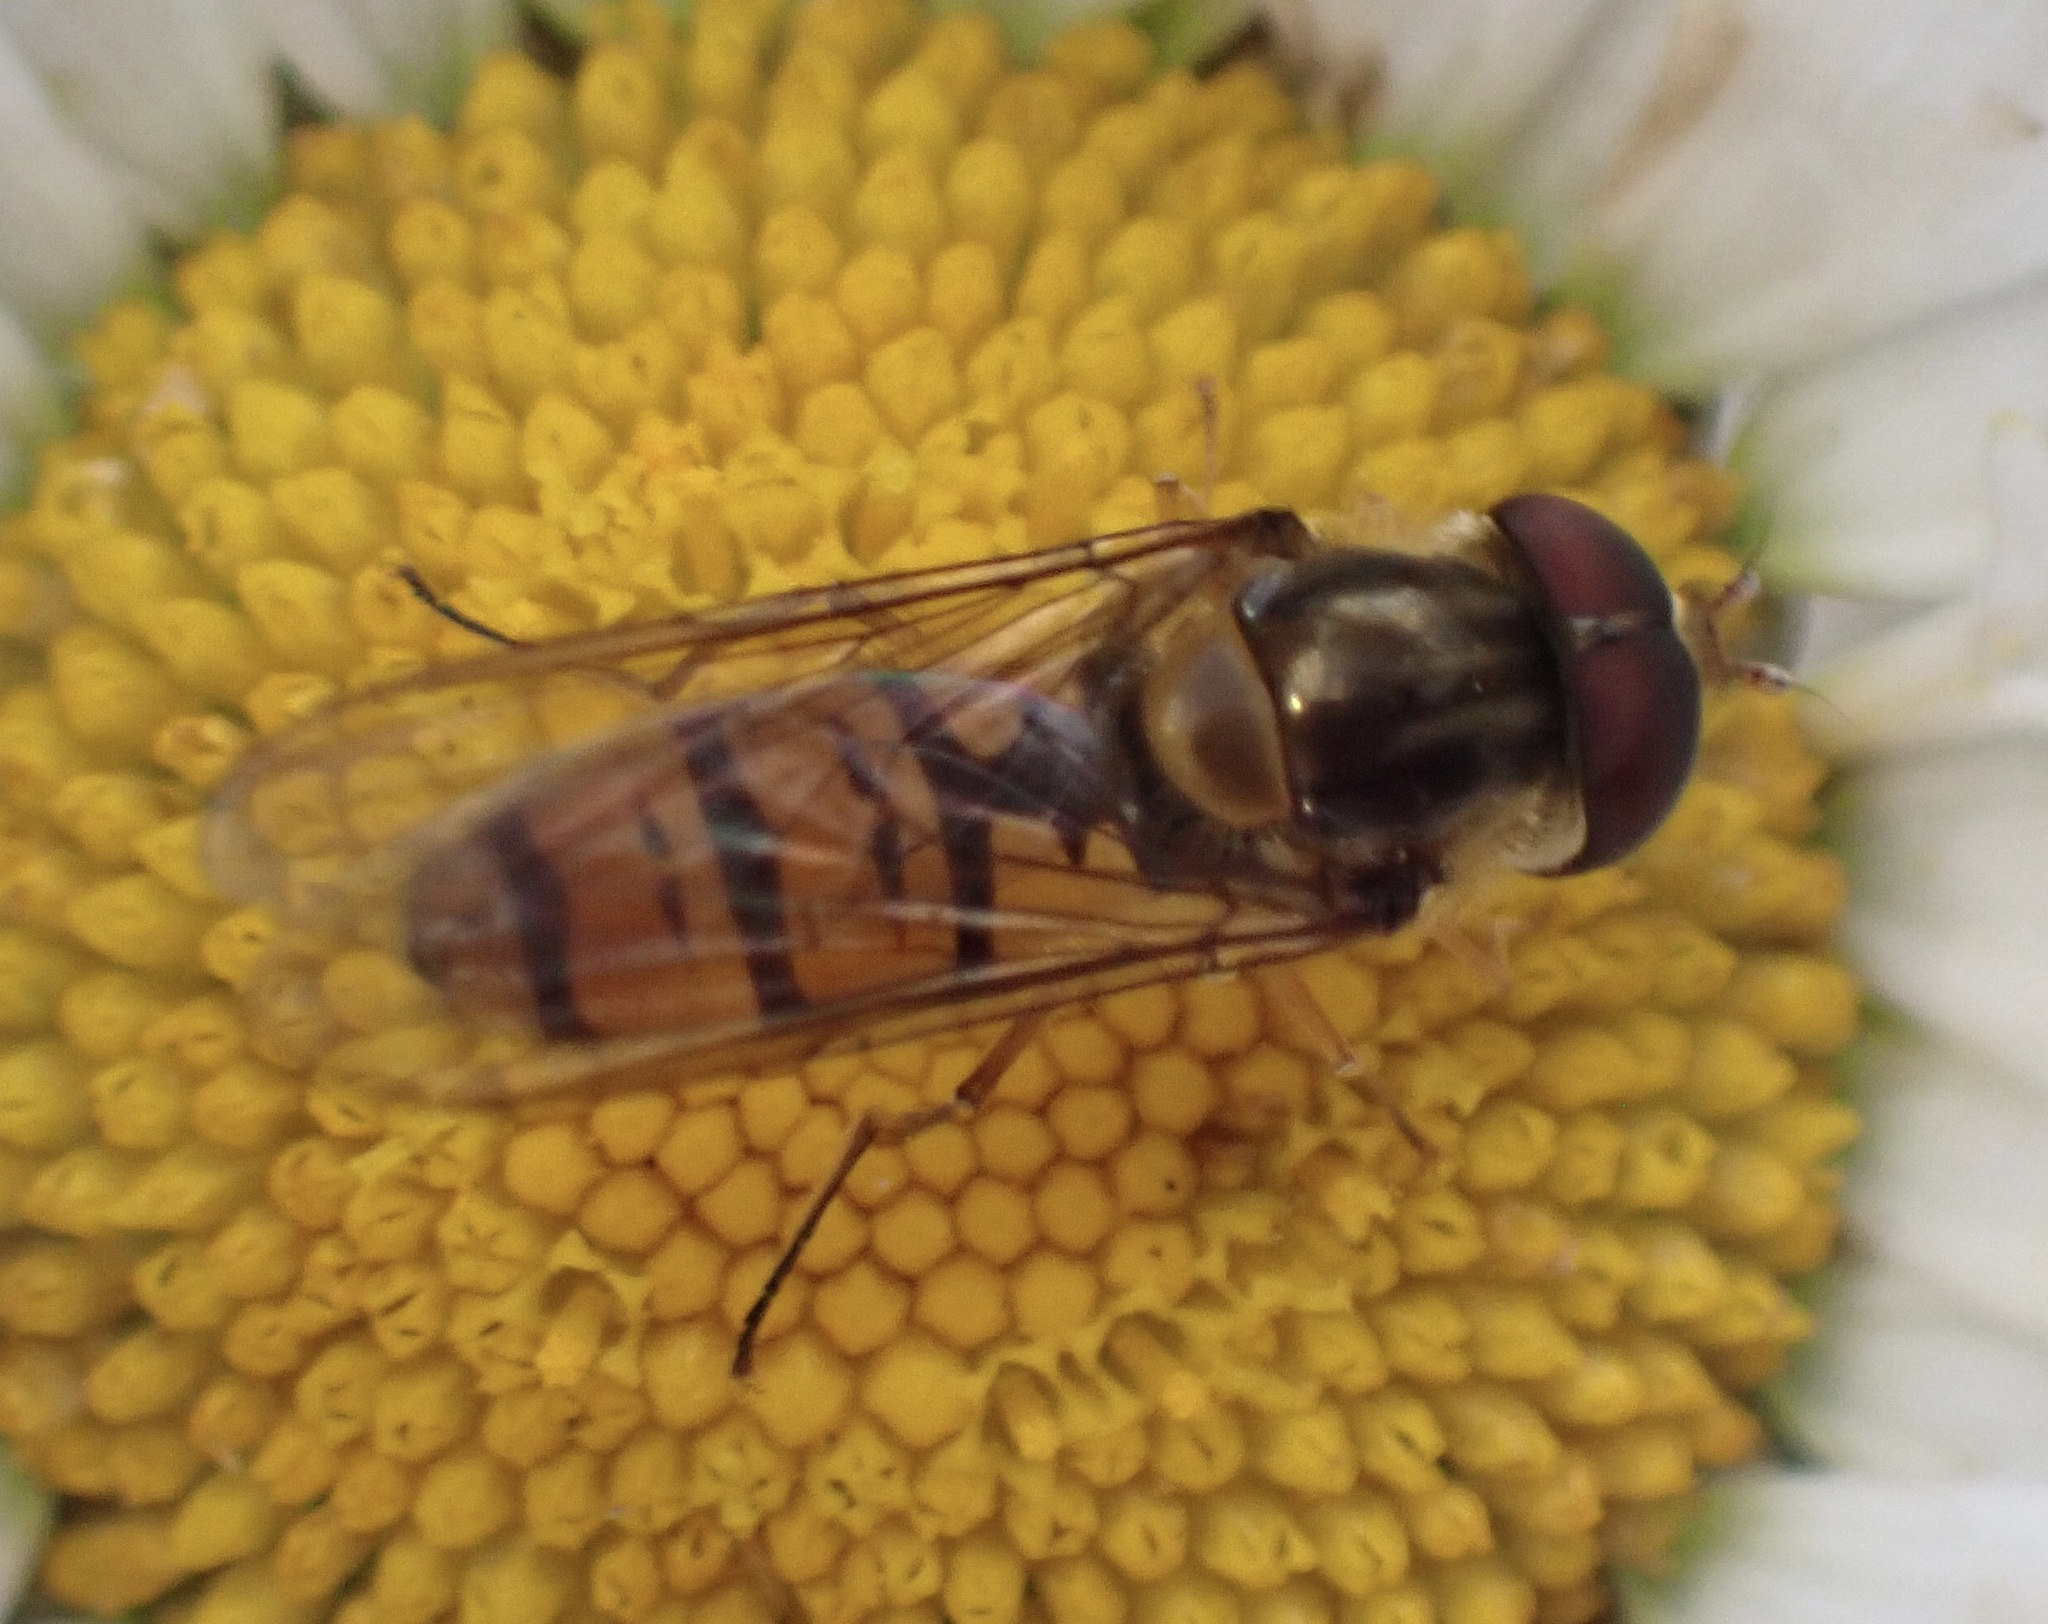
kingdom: Animalia
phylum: Arthropoda
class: Insecta
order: Diptera
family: Syrphidae
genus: Episyrphus
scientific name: Episyrphus balteatus
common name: Marmalade hoverfly
